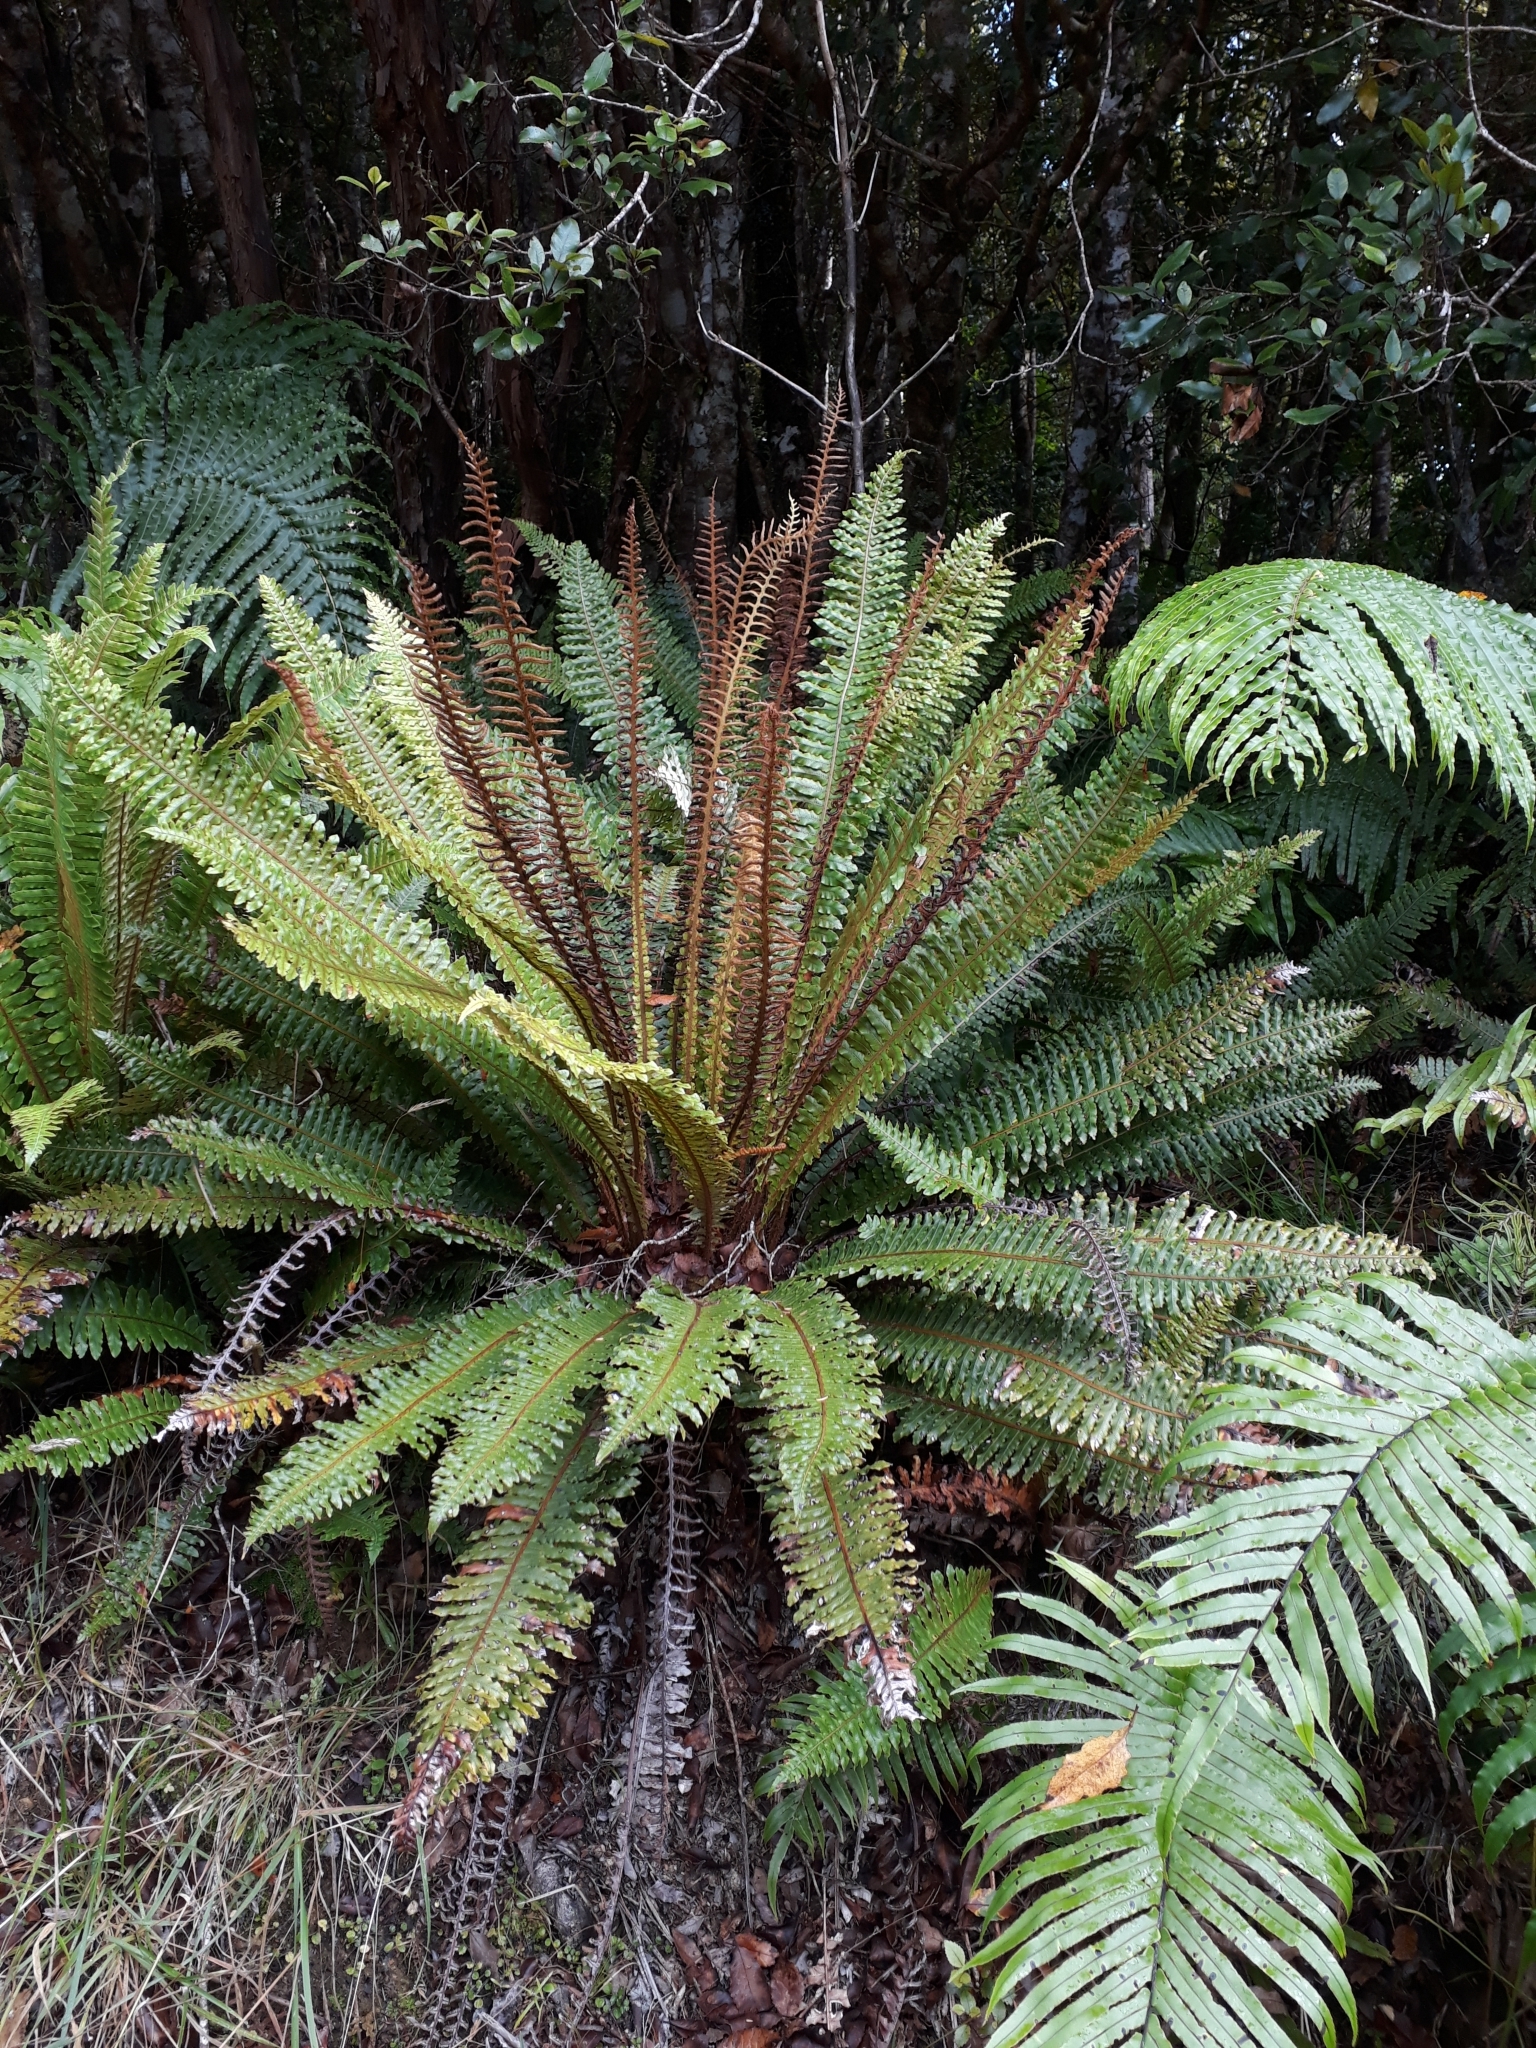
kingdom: Plantae
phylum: Tracheophyta
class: Polypodiopsida
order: Polypodiales
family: Blechnaceae
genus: Lomaria
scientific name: Lomaria discolor
